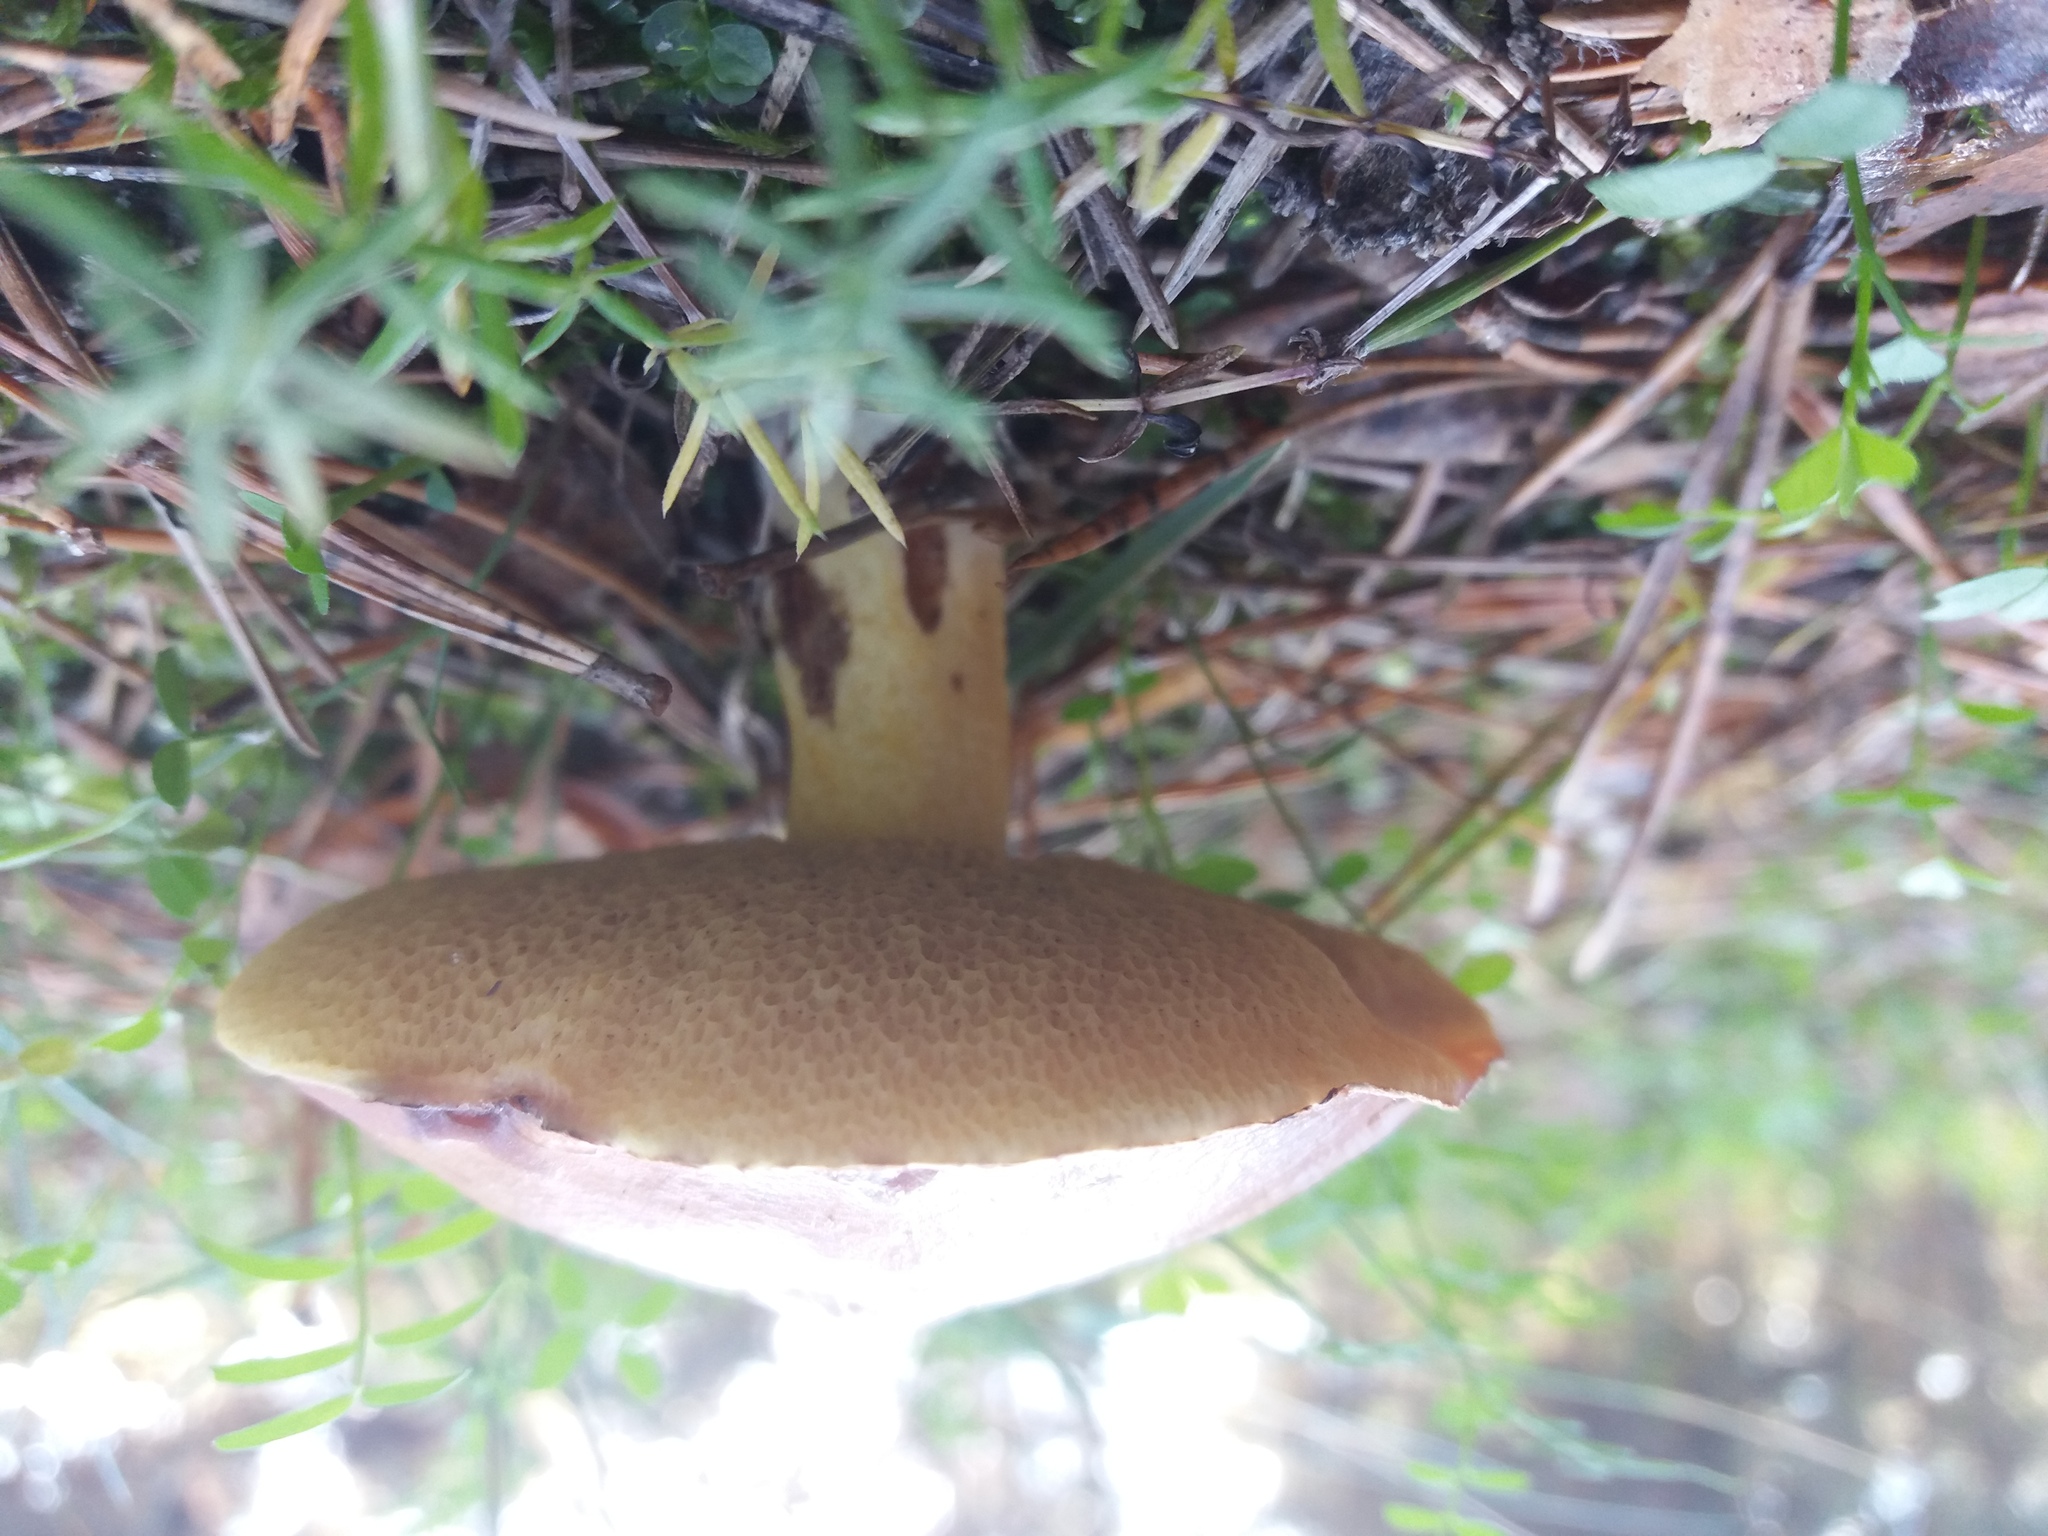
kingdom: Fungi
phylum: Basidiomycota
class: Agaricomycetes
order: Boletales
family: Suillaceae
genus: Suillus
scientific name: Suillus granulatus
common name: Weeping bolete
